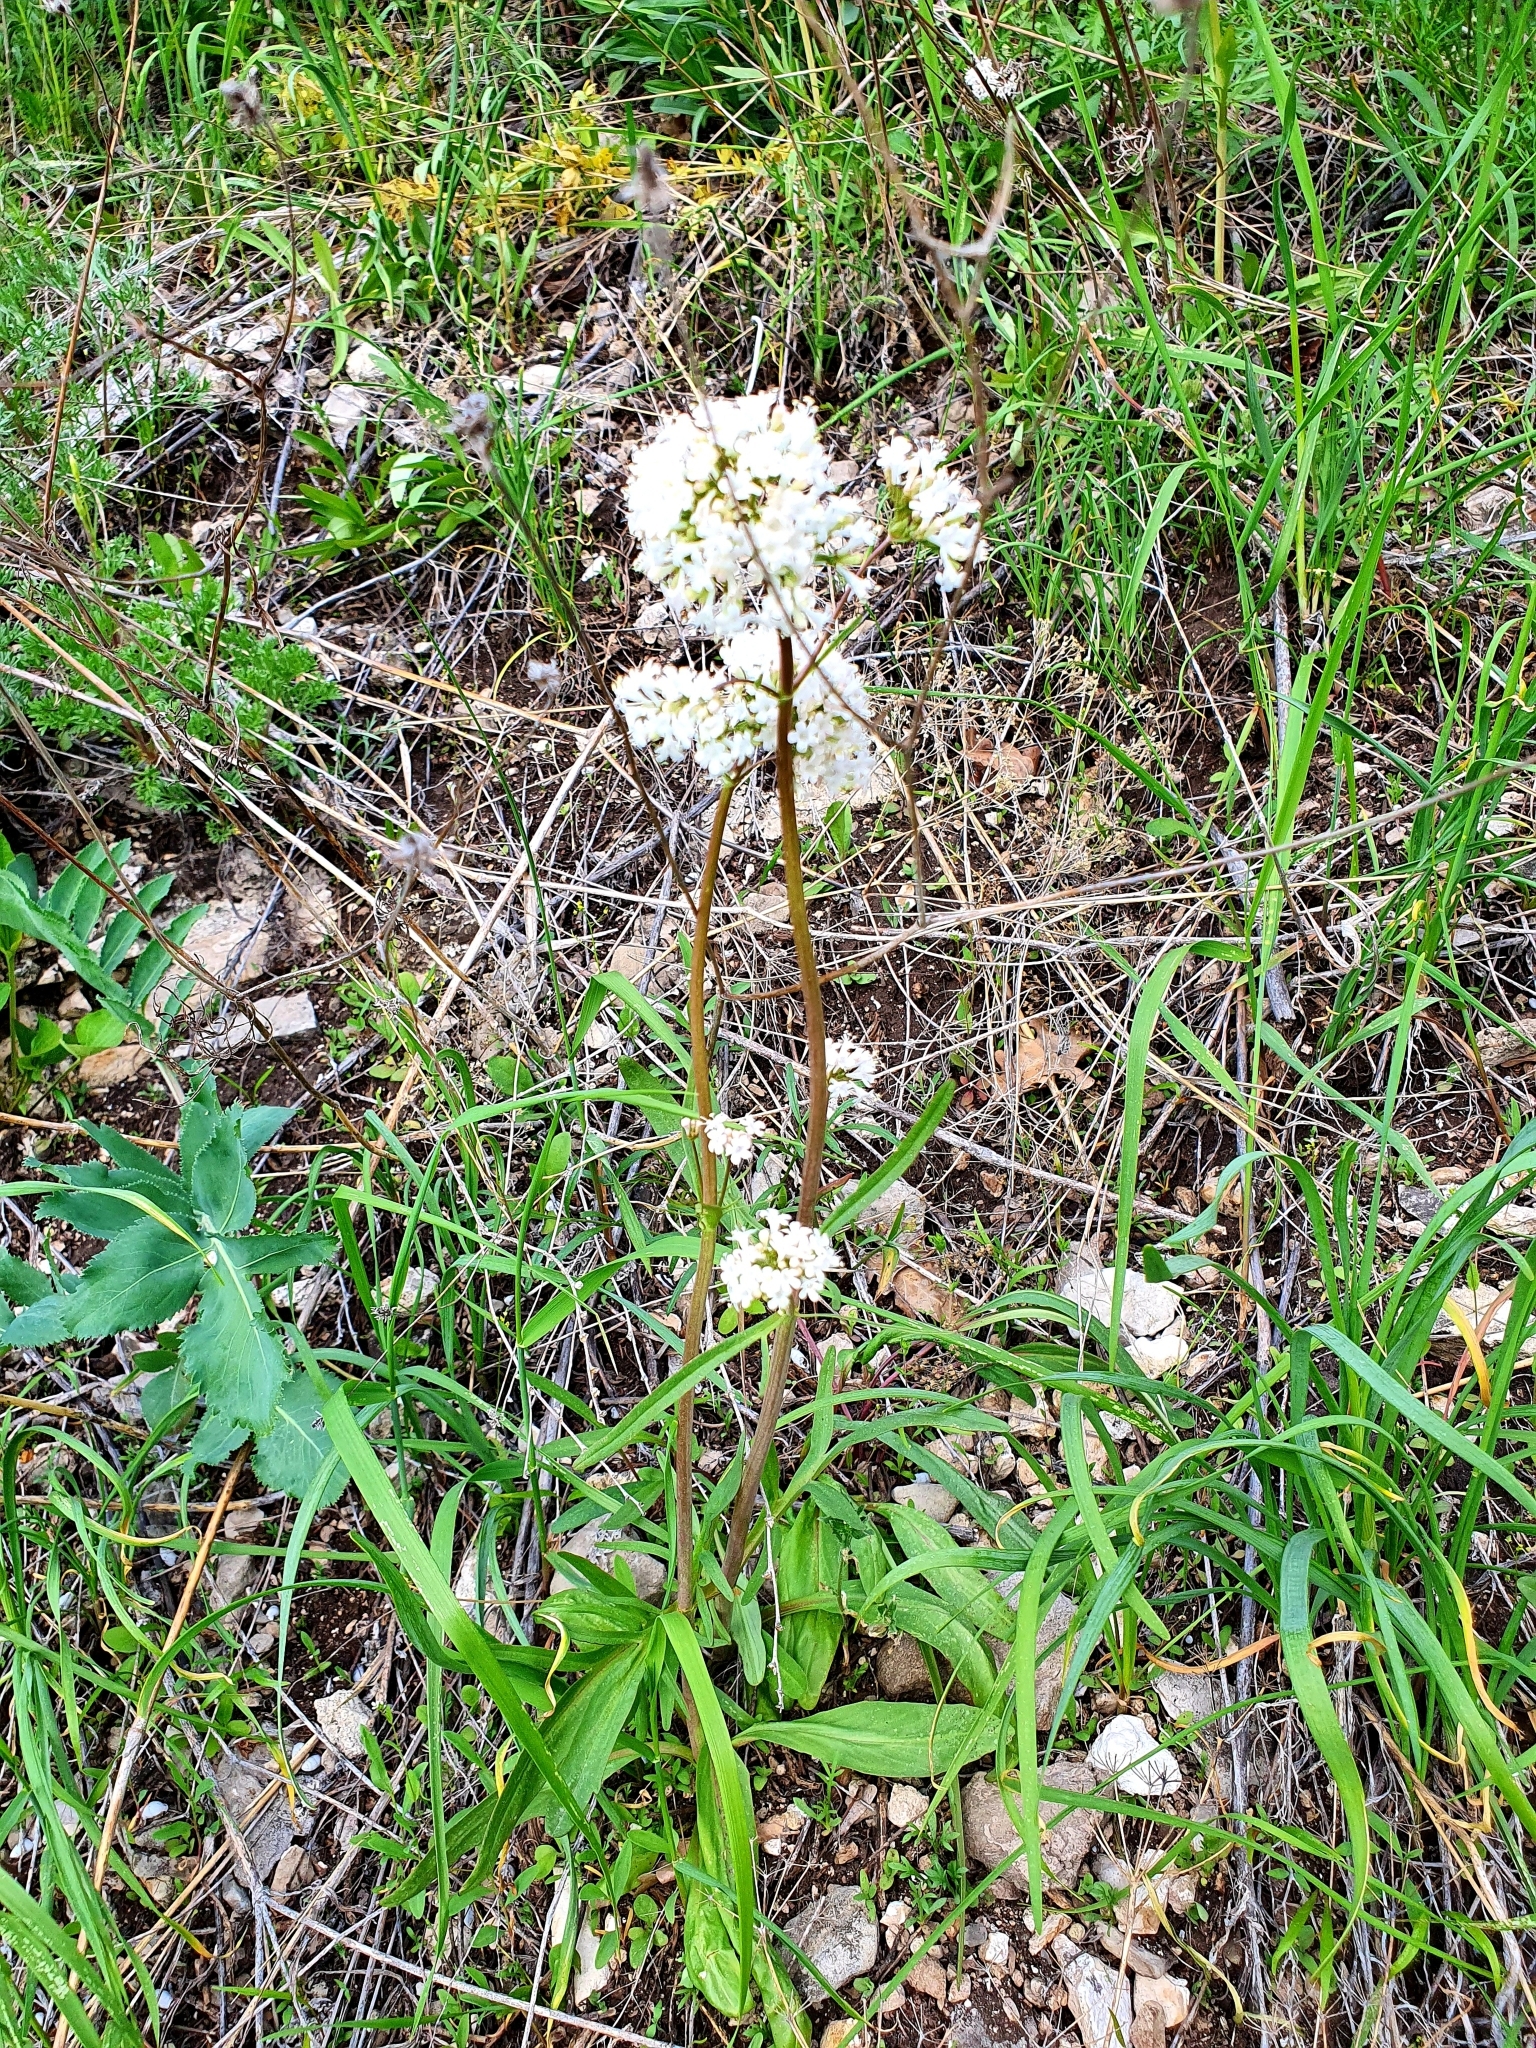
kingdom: Plantae
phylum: Tracheophyta
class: Magnoliopsida
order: Dipsacales
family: Caprifoliaceae
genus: Valeriana
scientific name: Valeriana tuberosa
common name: Tuberous valerian
